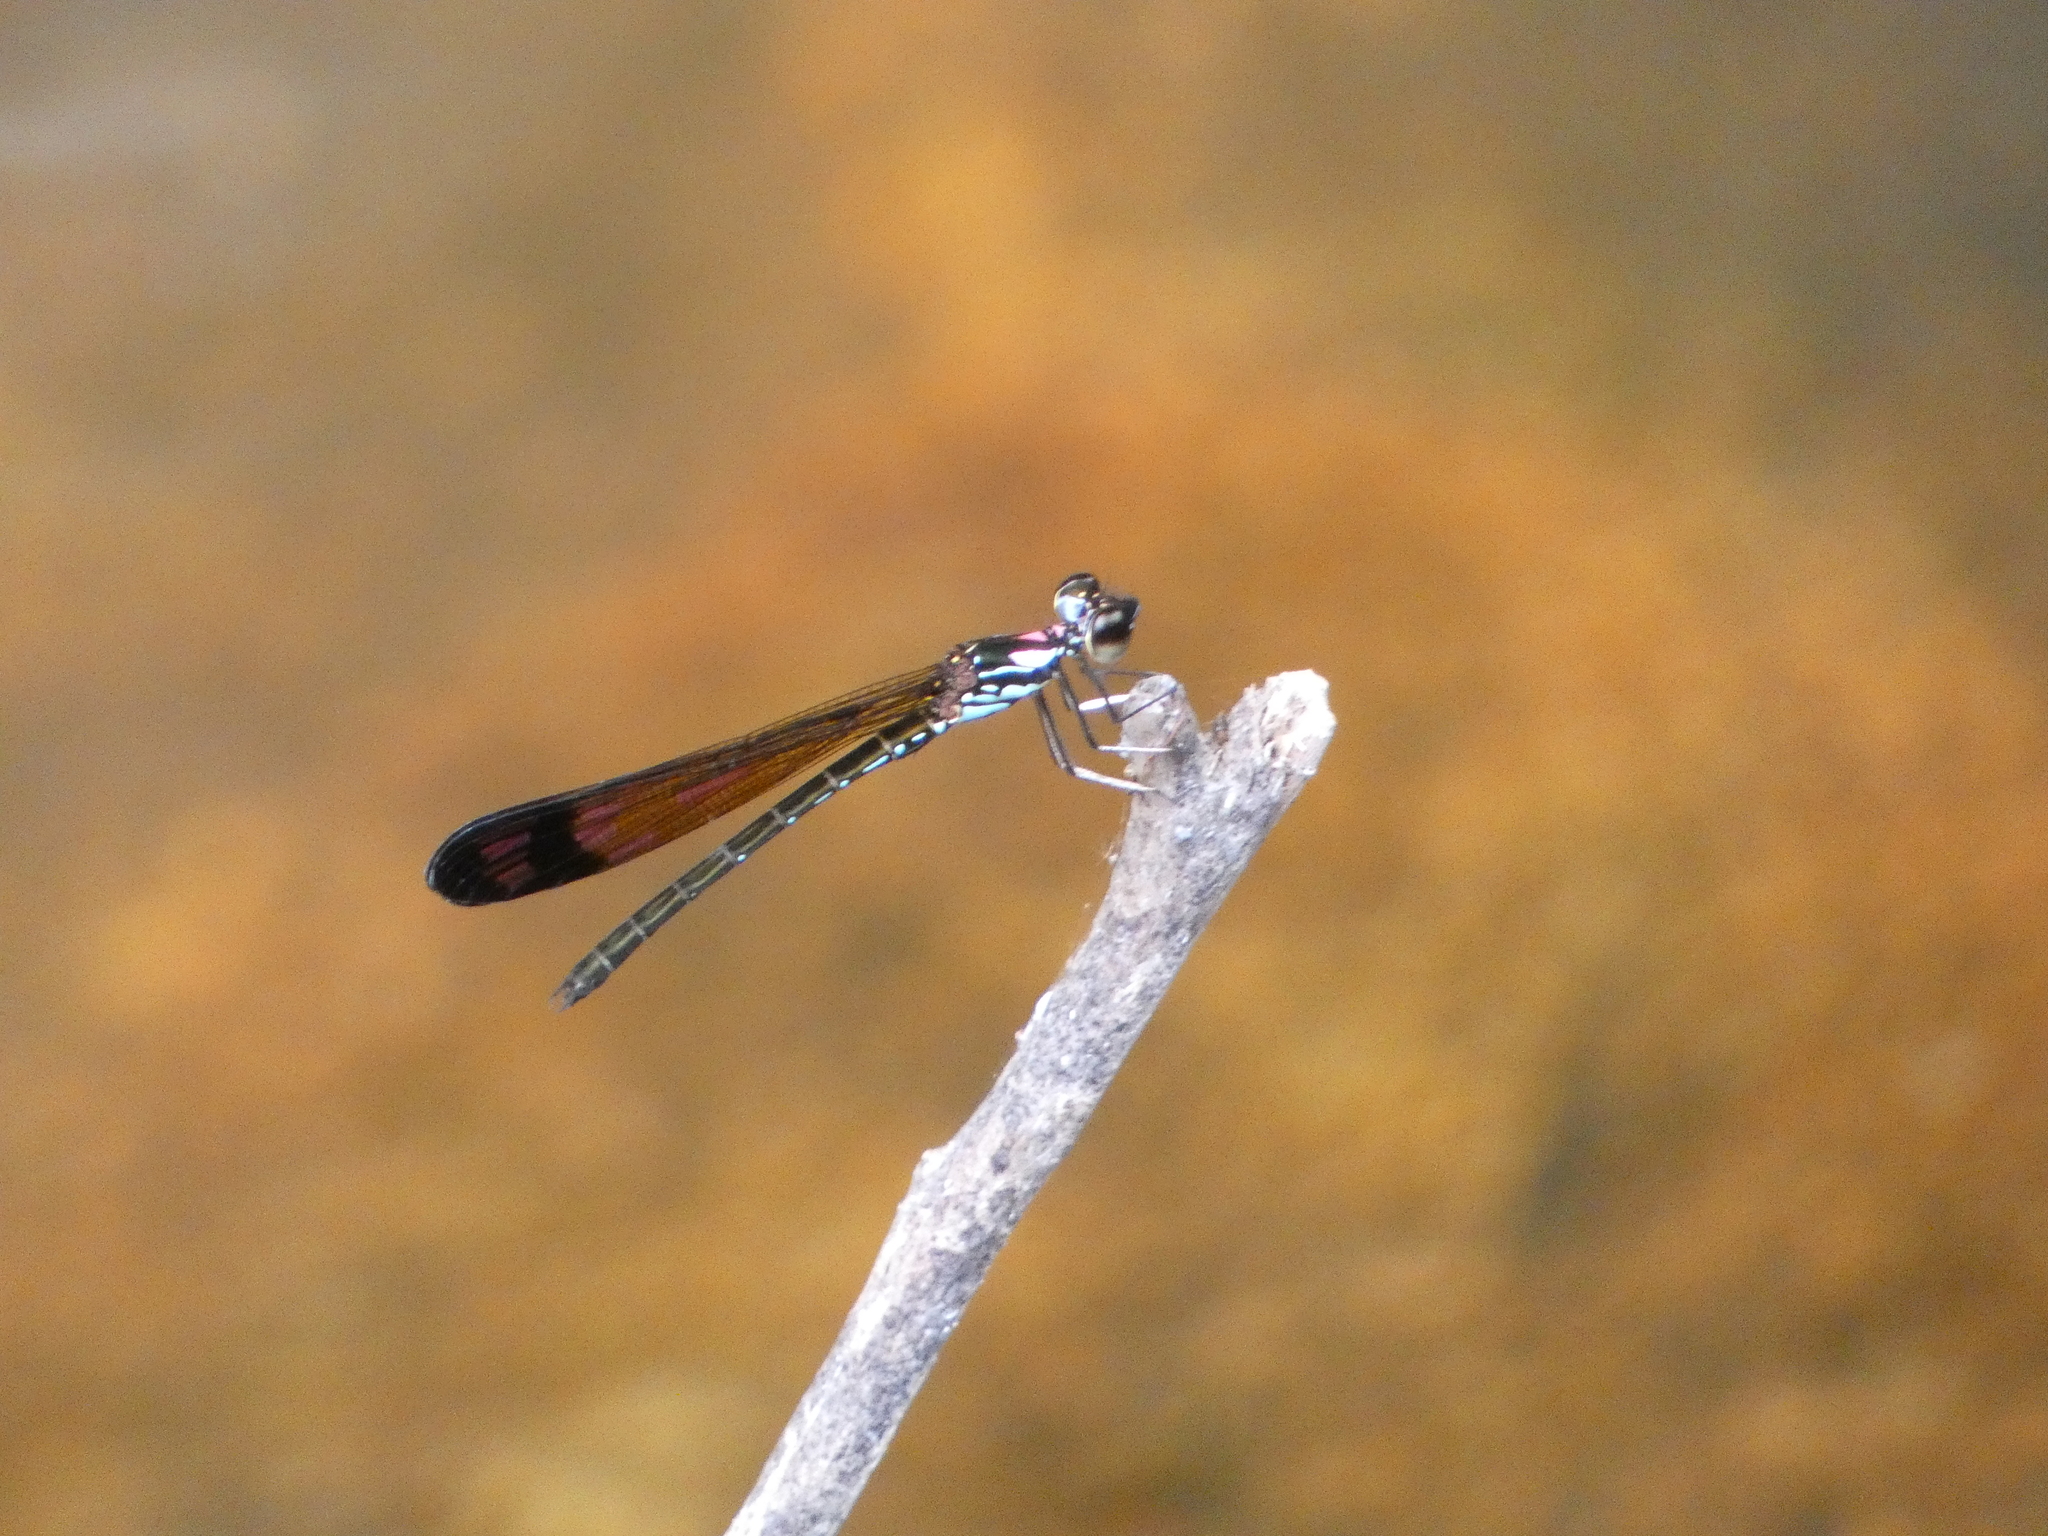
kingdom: Animalia
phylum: Arthropoda
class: Insecta
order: Odonata
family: Chlorocyphidae
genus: Heliocypha
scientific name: Heliocypha biforata
